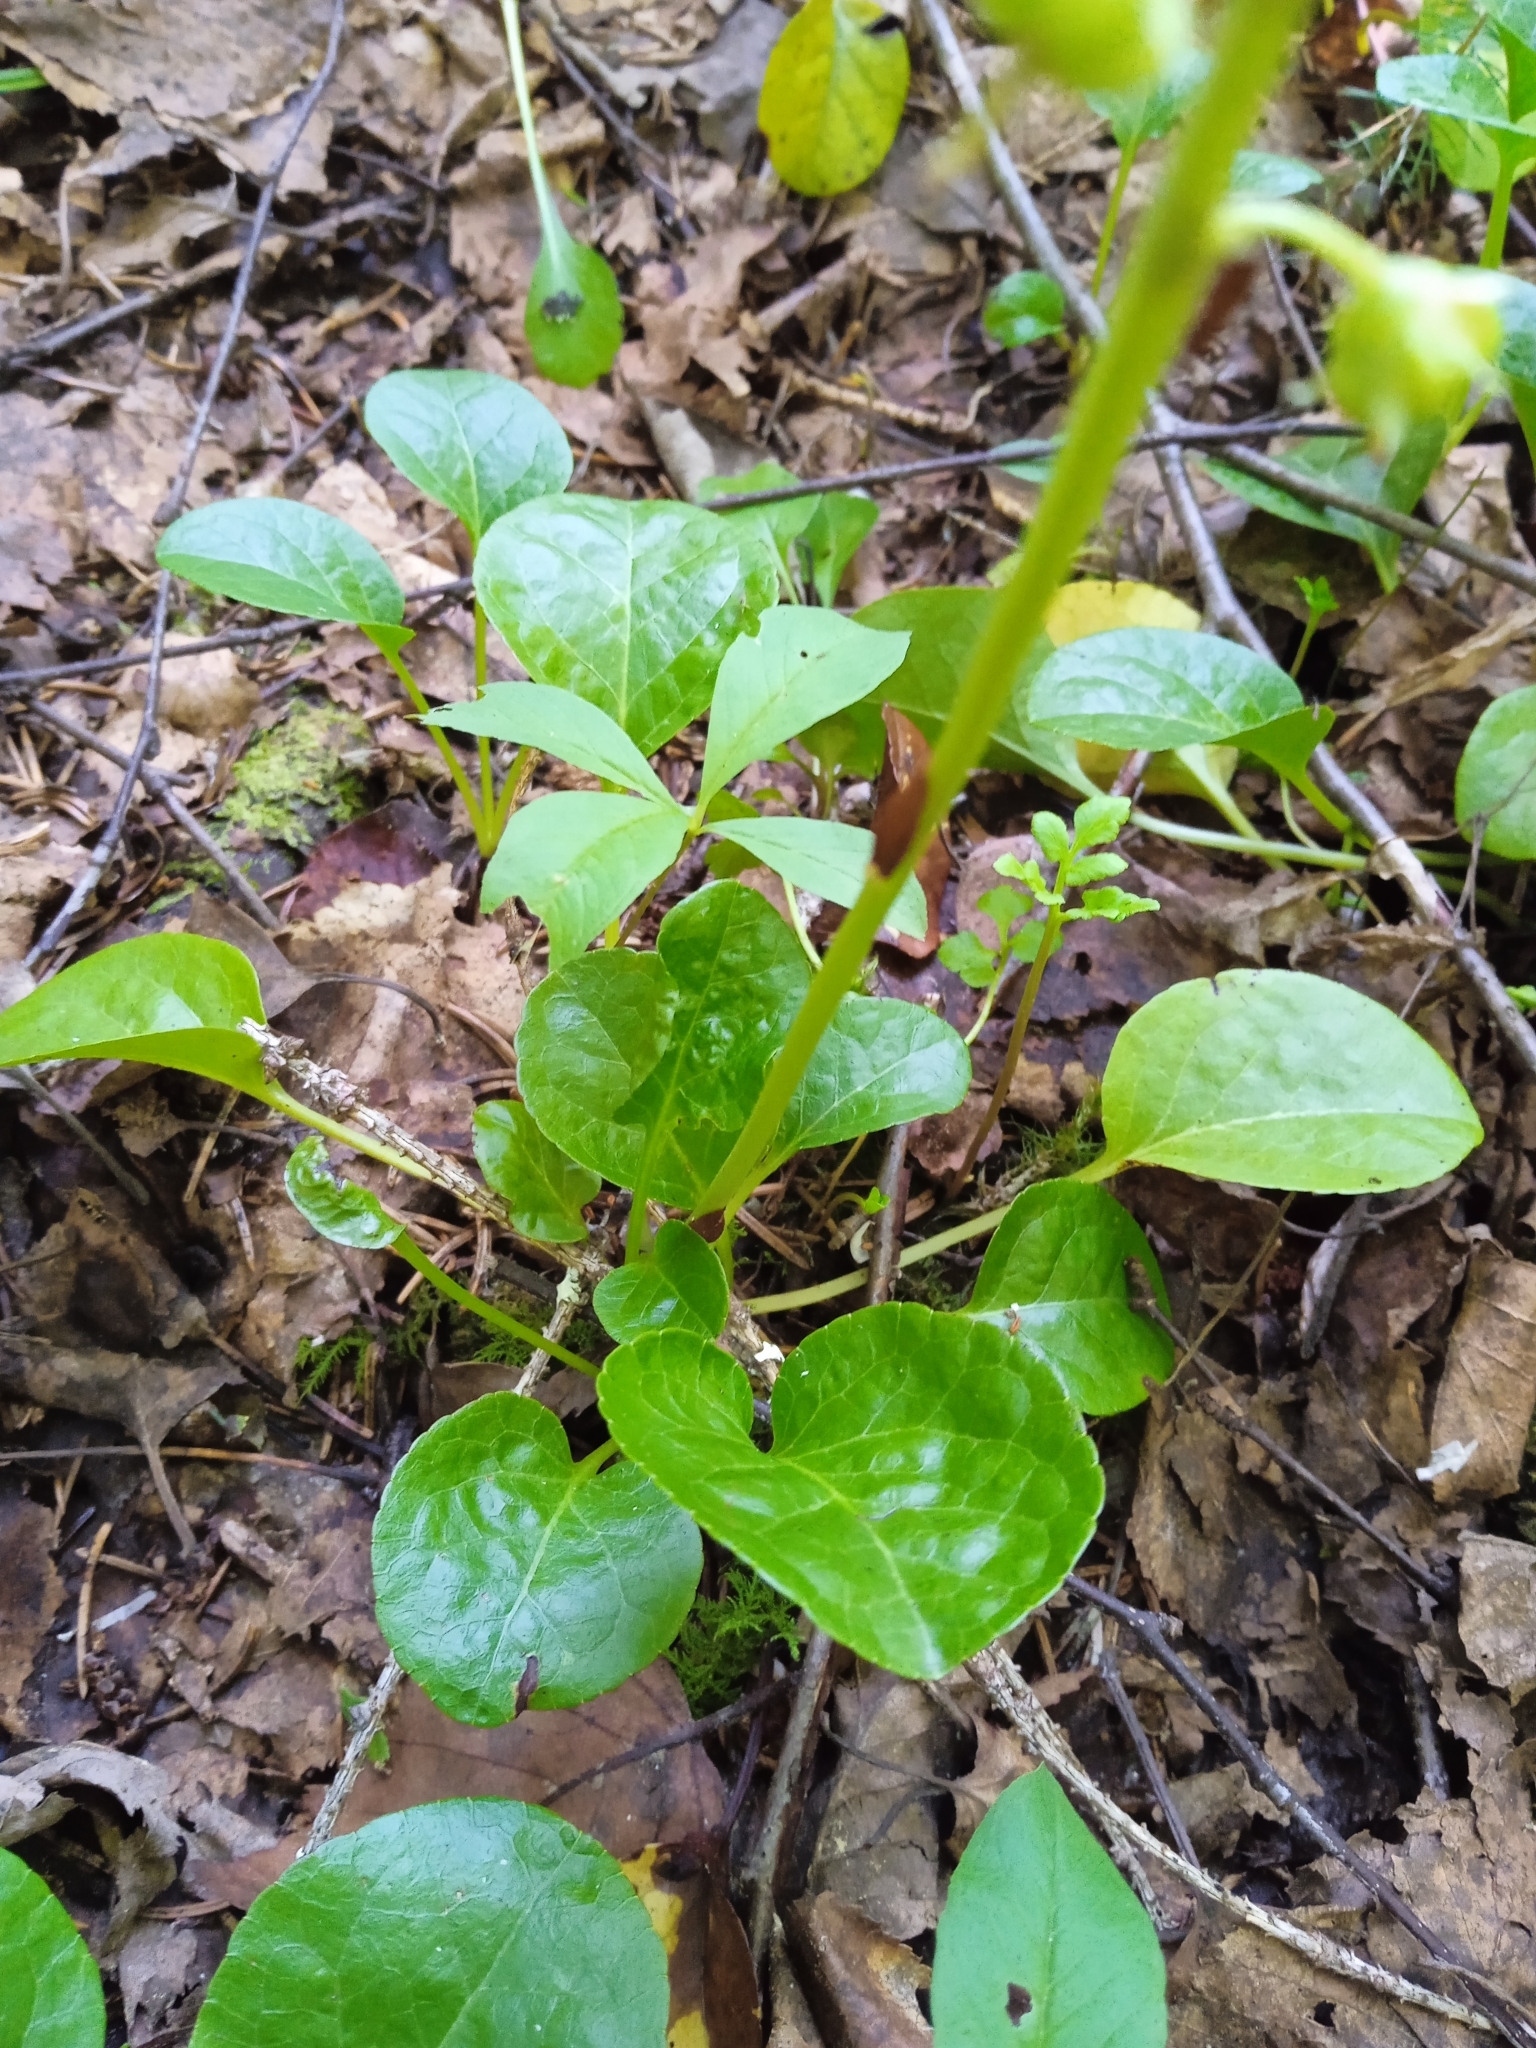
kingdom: Plantae
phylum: Tracheophyta
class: Magnoliopsida
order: Ericales
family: Ericaceae
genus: Pyrola
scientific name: Pyrola rotundifolia
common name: Round-leaved wintergreen
